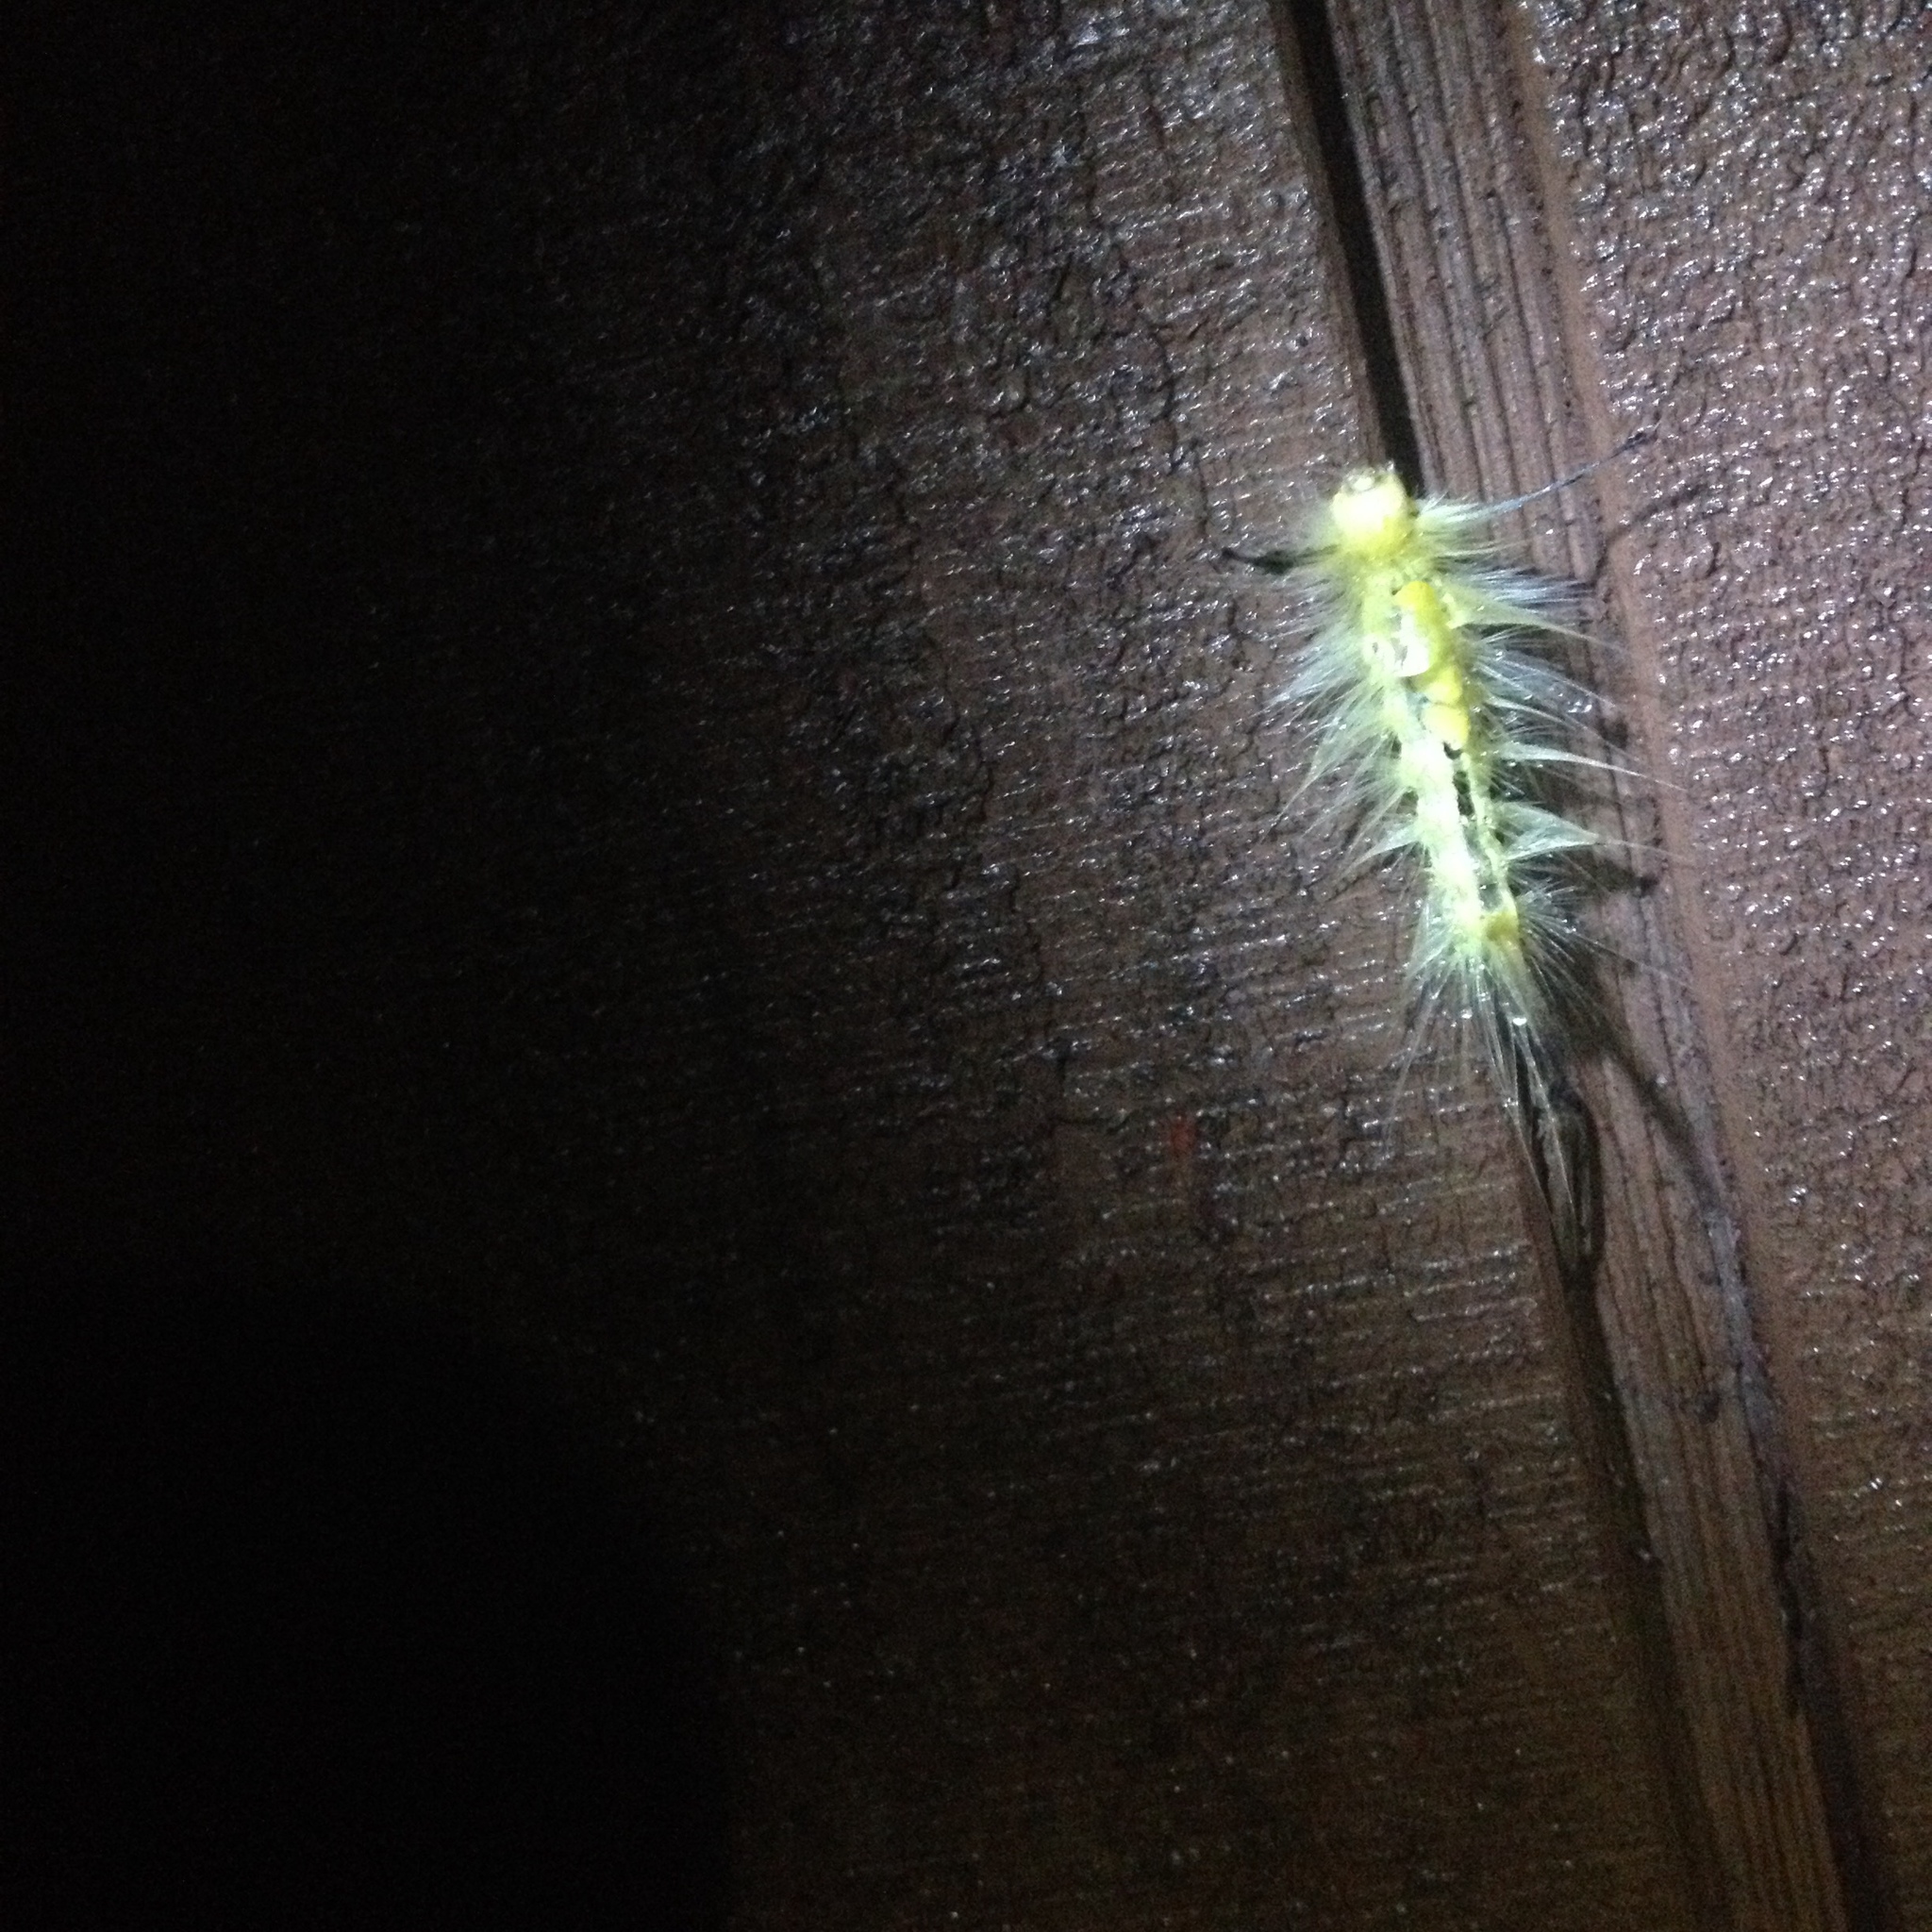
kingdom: Animalia
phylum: Arthropoda
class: Insecta
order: Lepidoptera
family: Erebidae
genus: Orgyia
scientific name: Orgyia definita
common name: Definite tussock moth
